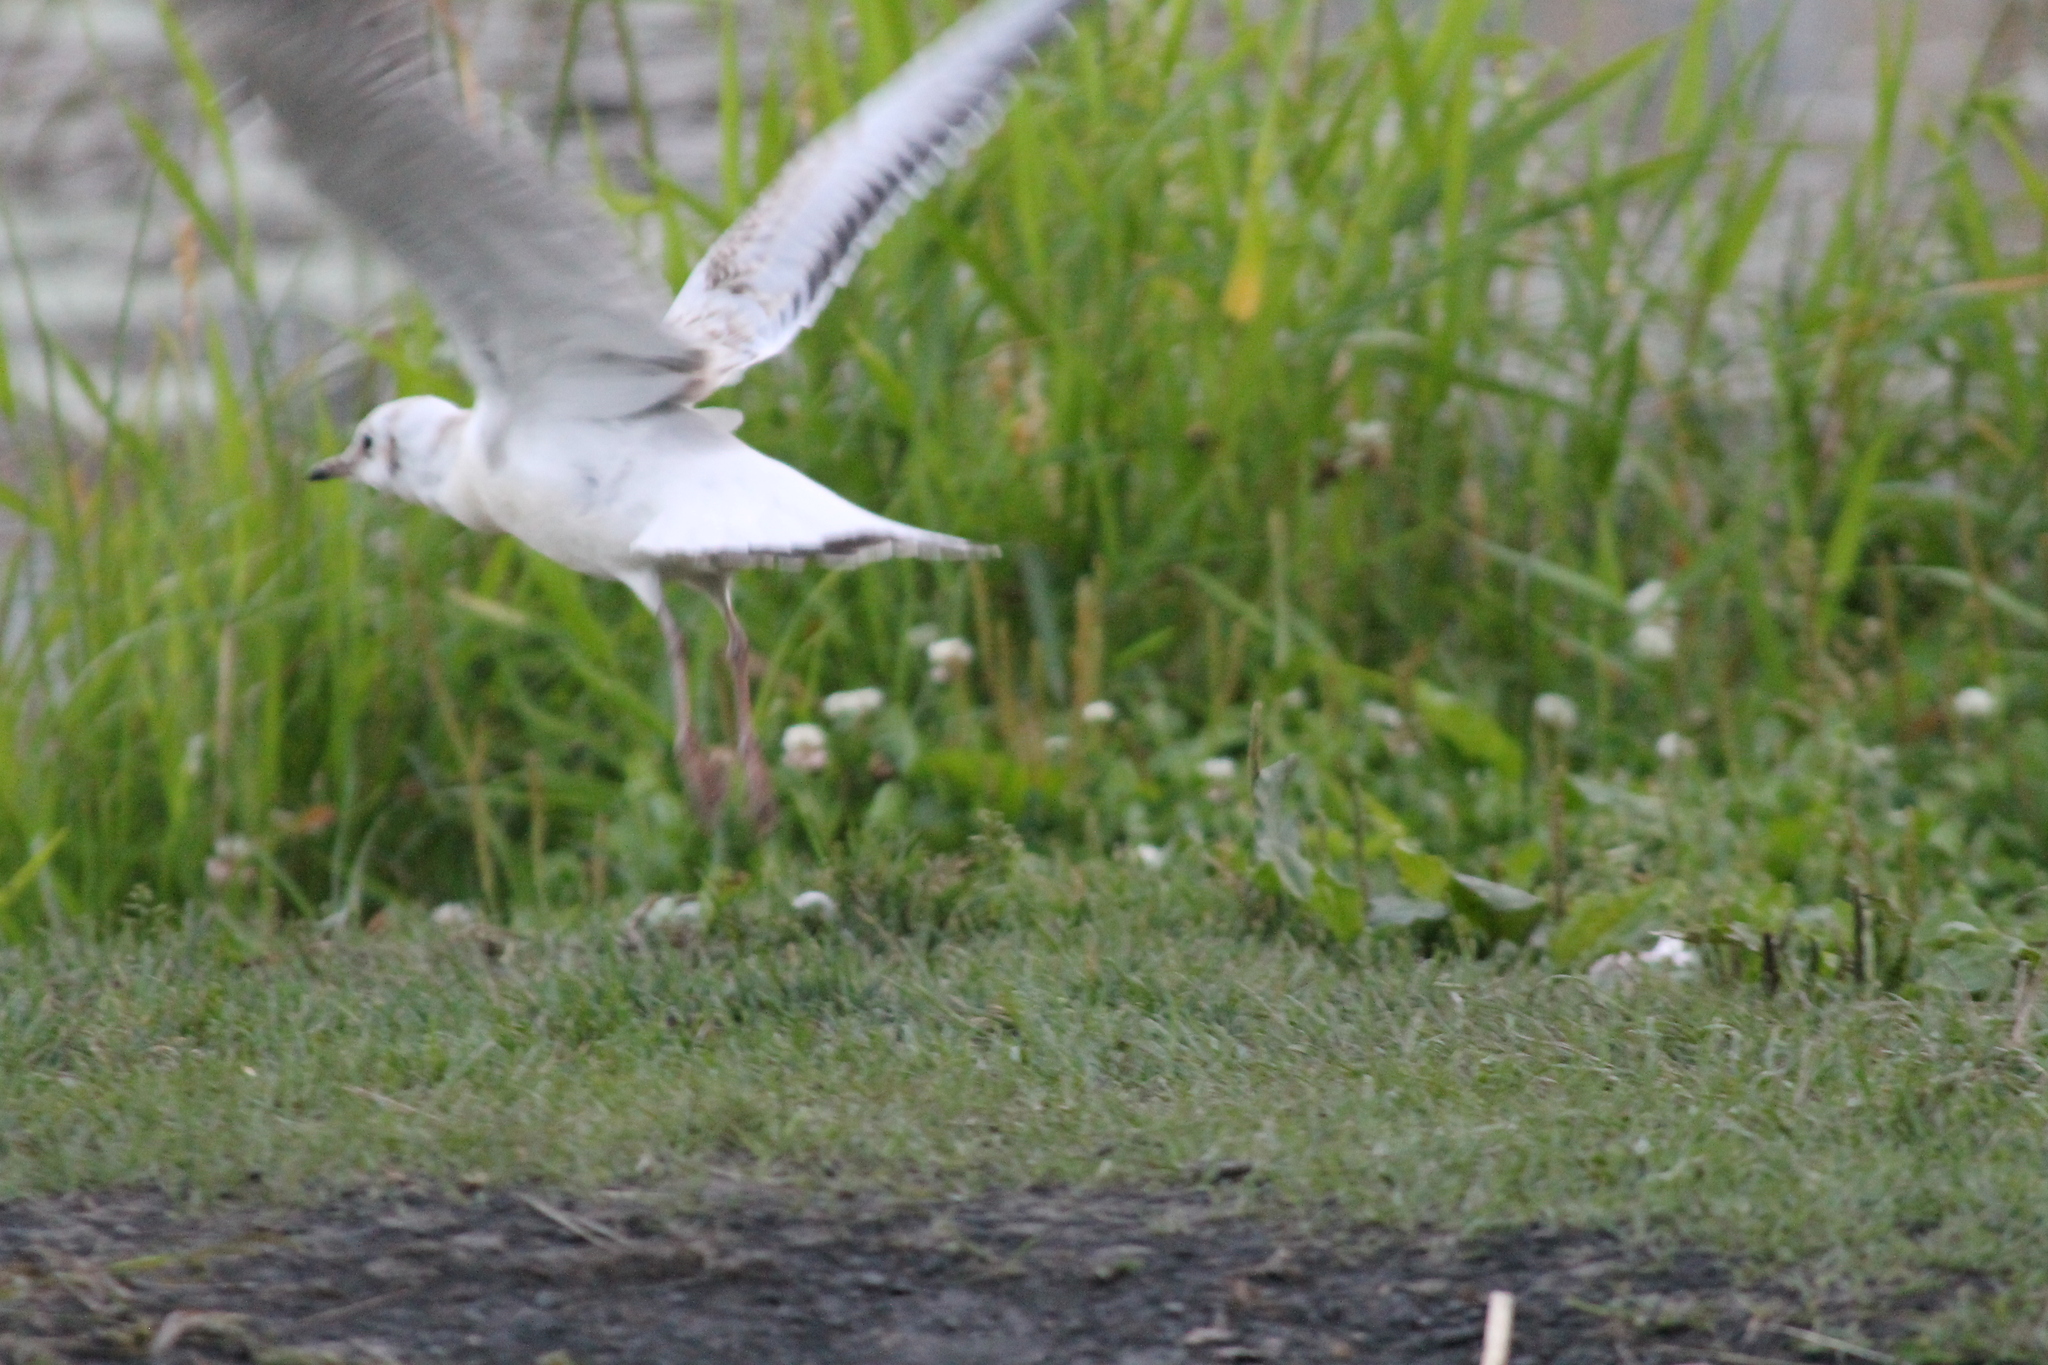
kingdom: Animalia
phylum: Chordata
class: Aves
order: Charadriiformes
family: Laridae
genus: Chroicocephalus
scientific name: Chroicocephalus ridibundus
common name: Black-headed gull
